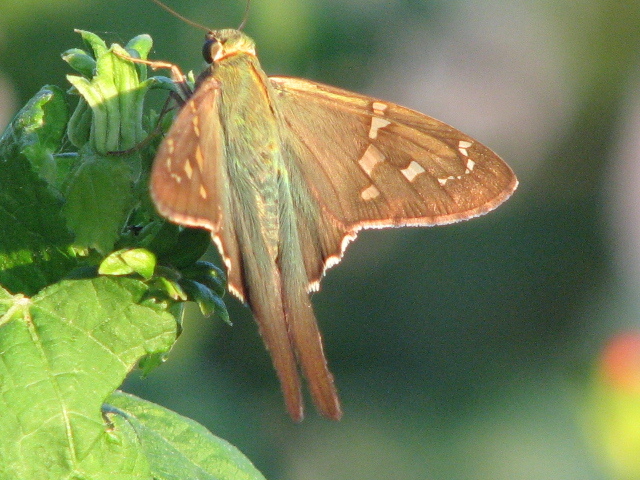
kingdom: Animalia
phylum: Arthropoda
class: Insecta
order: Lepidoptera
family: Hesperiidae
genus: Urbanus
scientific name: Urbanus proteus
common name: Long-tailed skipper
